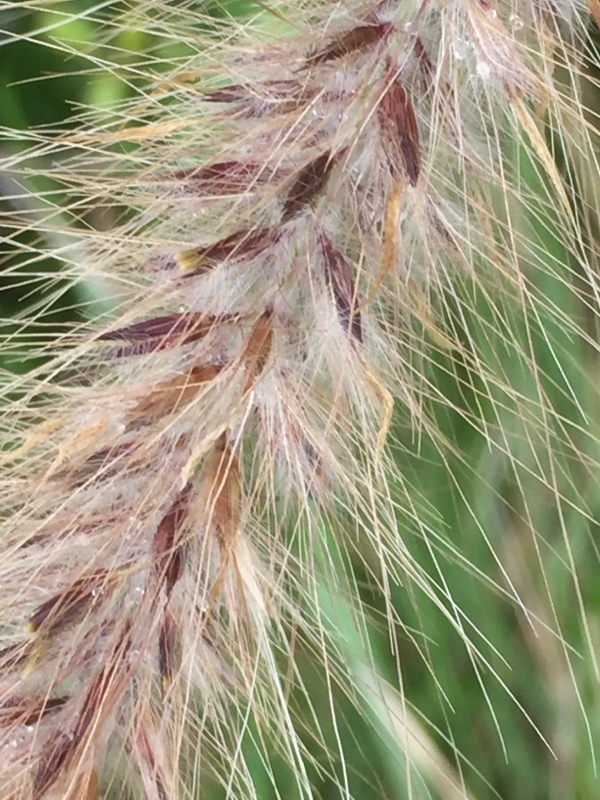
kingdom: Plantae
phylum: Tracheophyta
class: Liliopsida
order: Poales
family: Poaceae
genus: Cenchrus
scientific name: Cenchrus setaceus
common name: Crimson fountaingrass
